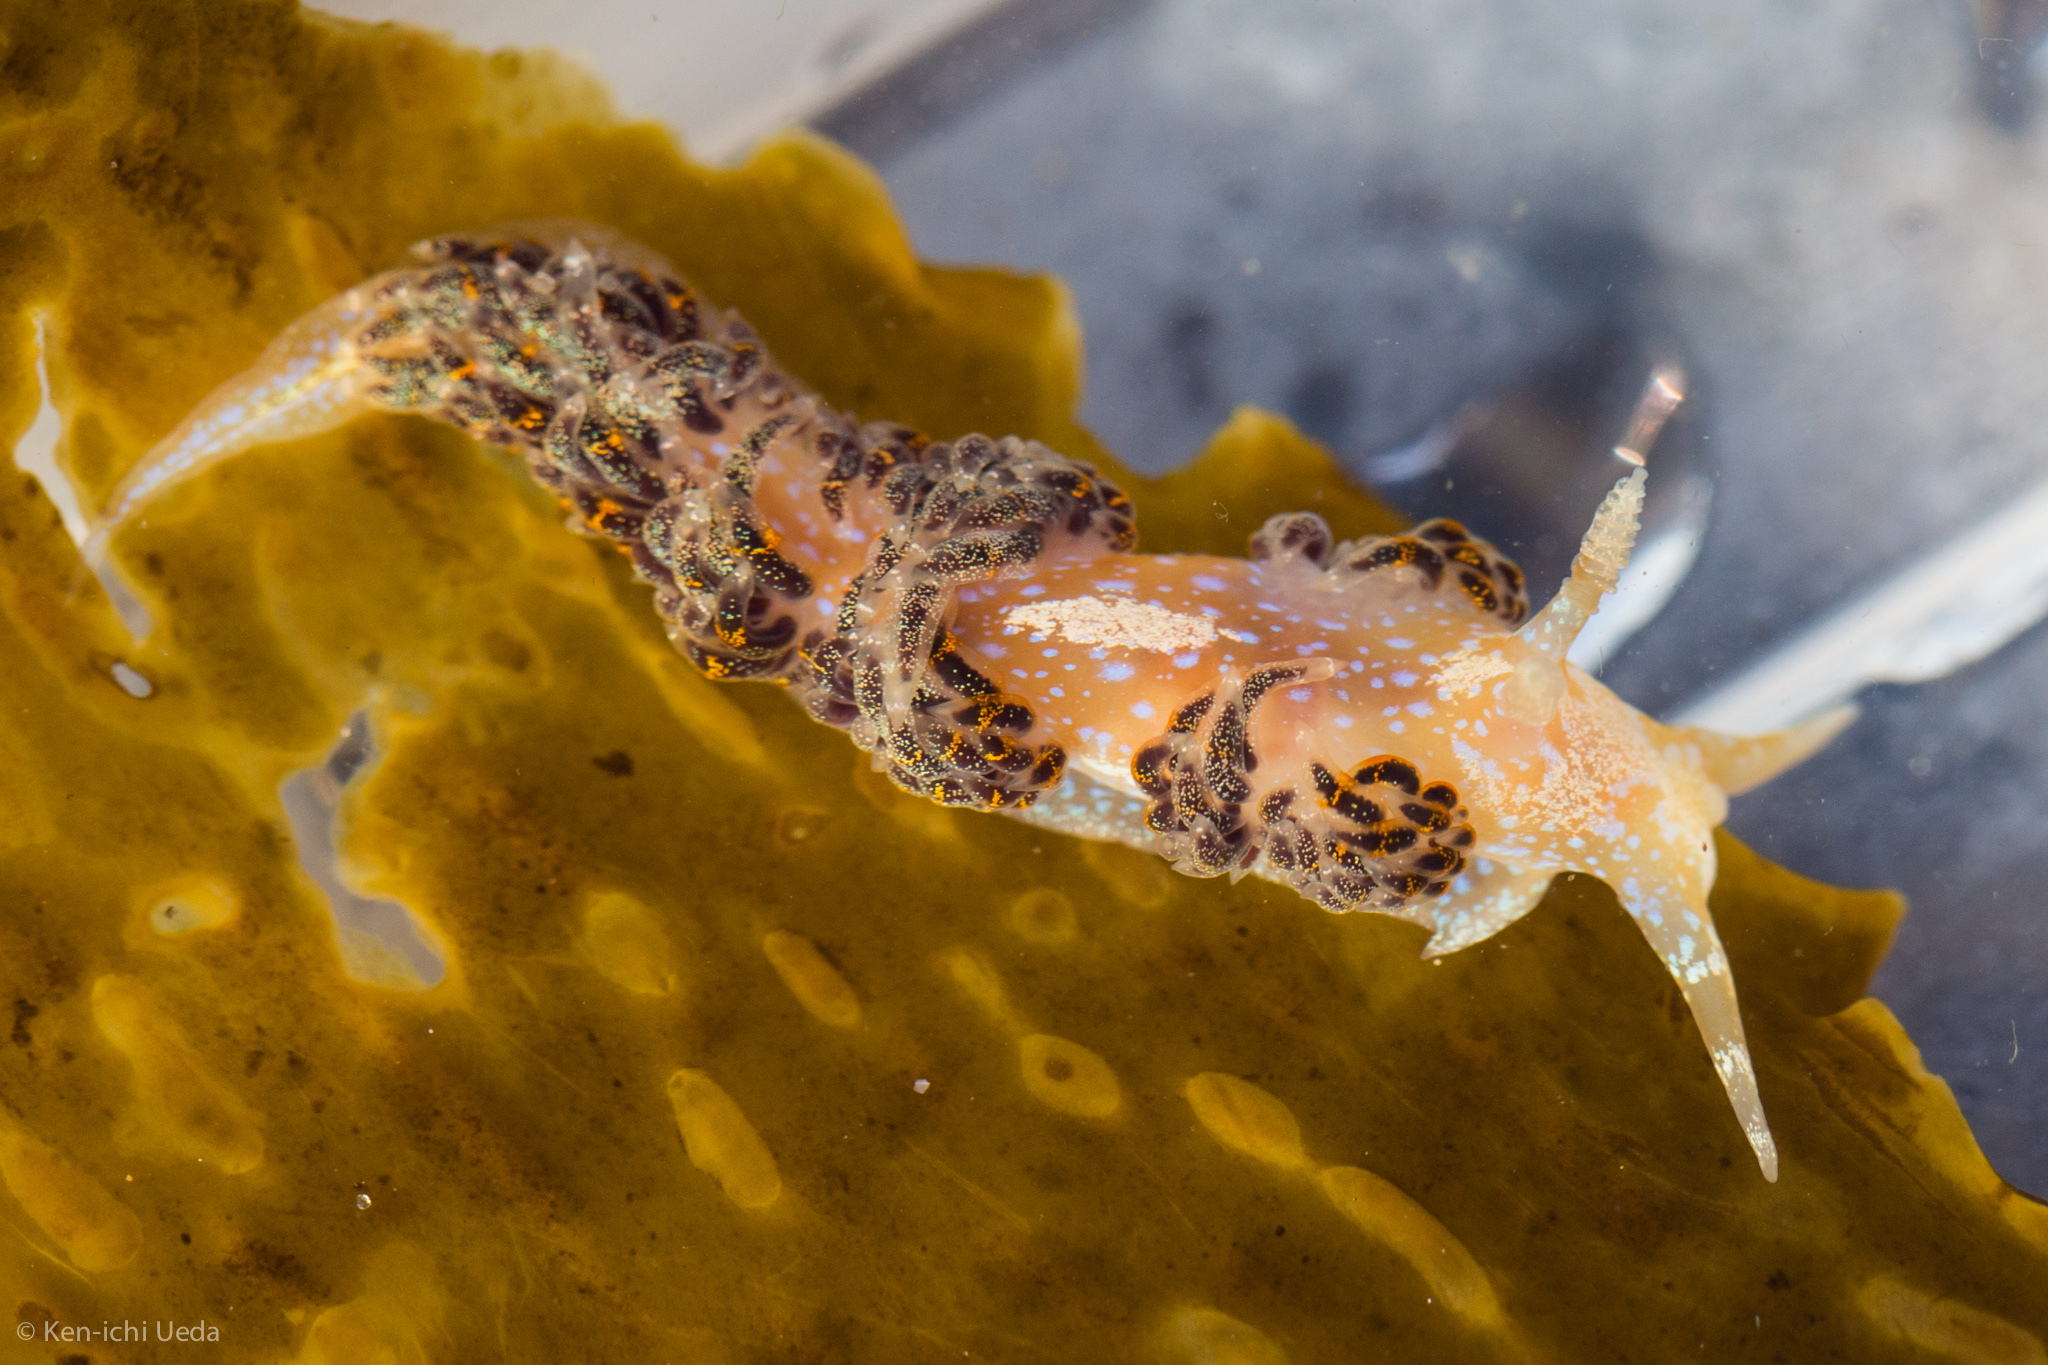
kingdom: Animalia
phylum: Mollusca
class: Gastropoda
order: Nudibranchia
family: Facelinidae
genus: Austraeolis
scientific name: Austraeolis ornata
